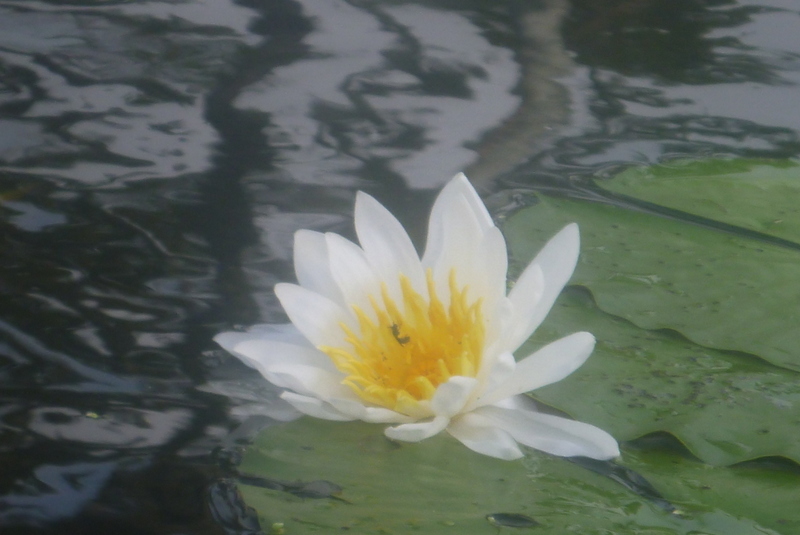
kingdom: Plantae
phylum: Tracheophyta
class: Magnoliopsida
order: Nymphaeales
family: Nymphaeaceae
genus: Nymphaea
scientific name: Nymphaea odorata
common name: Fragrant water-lily
